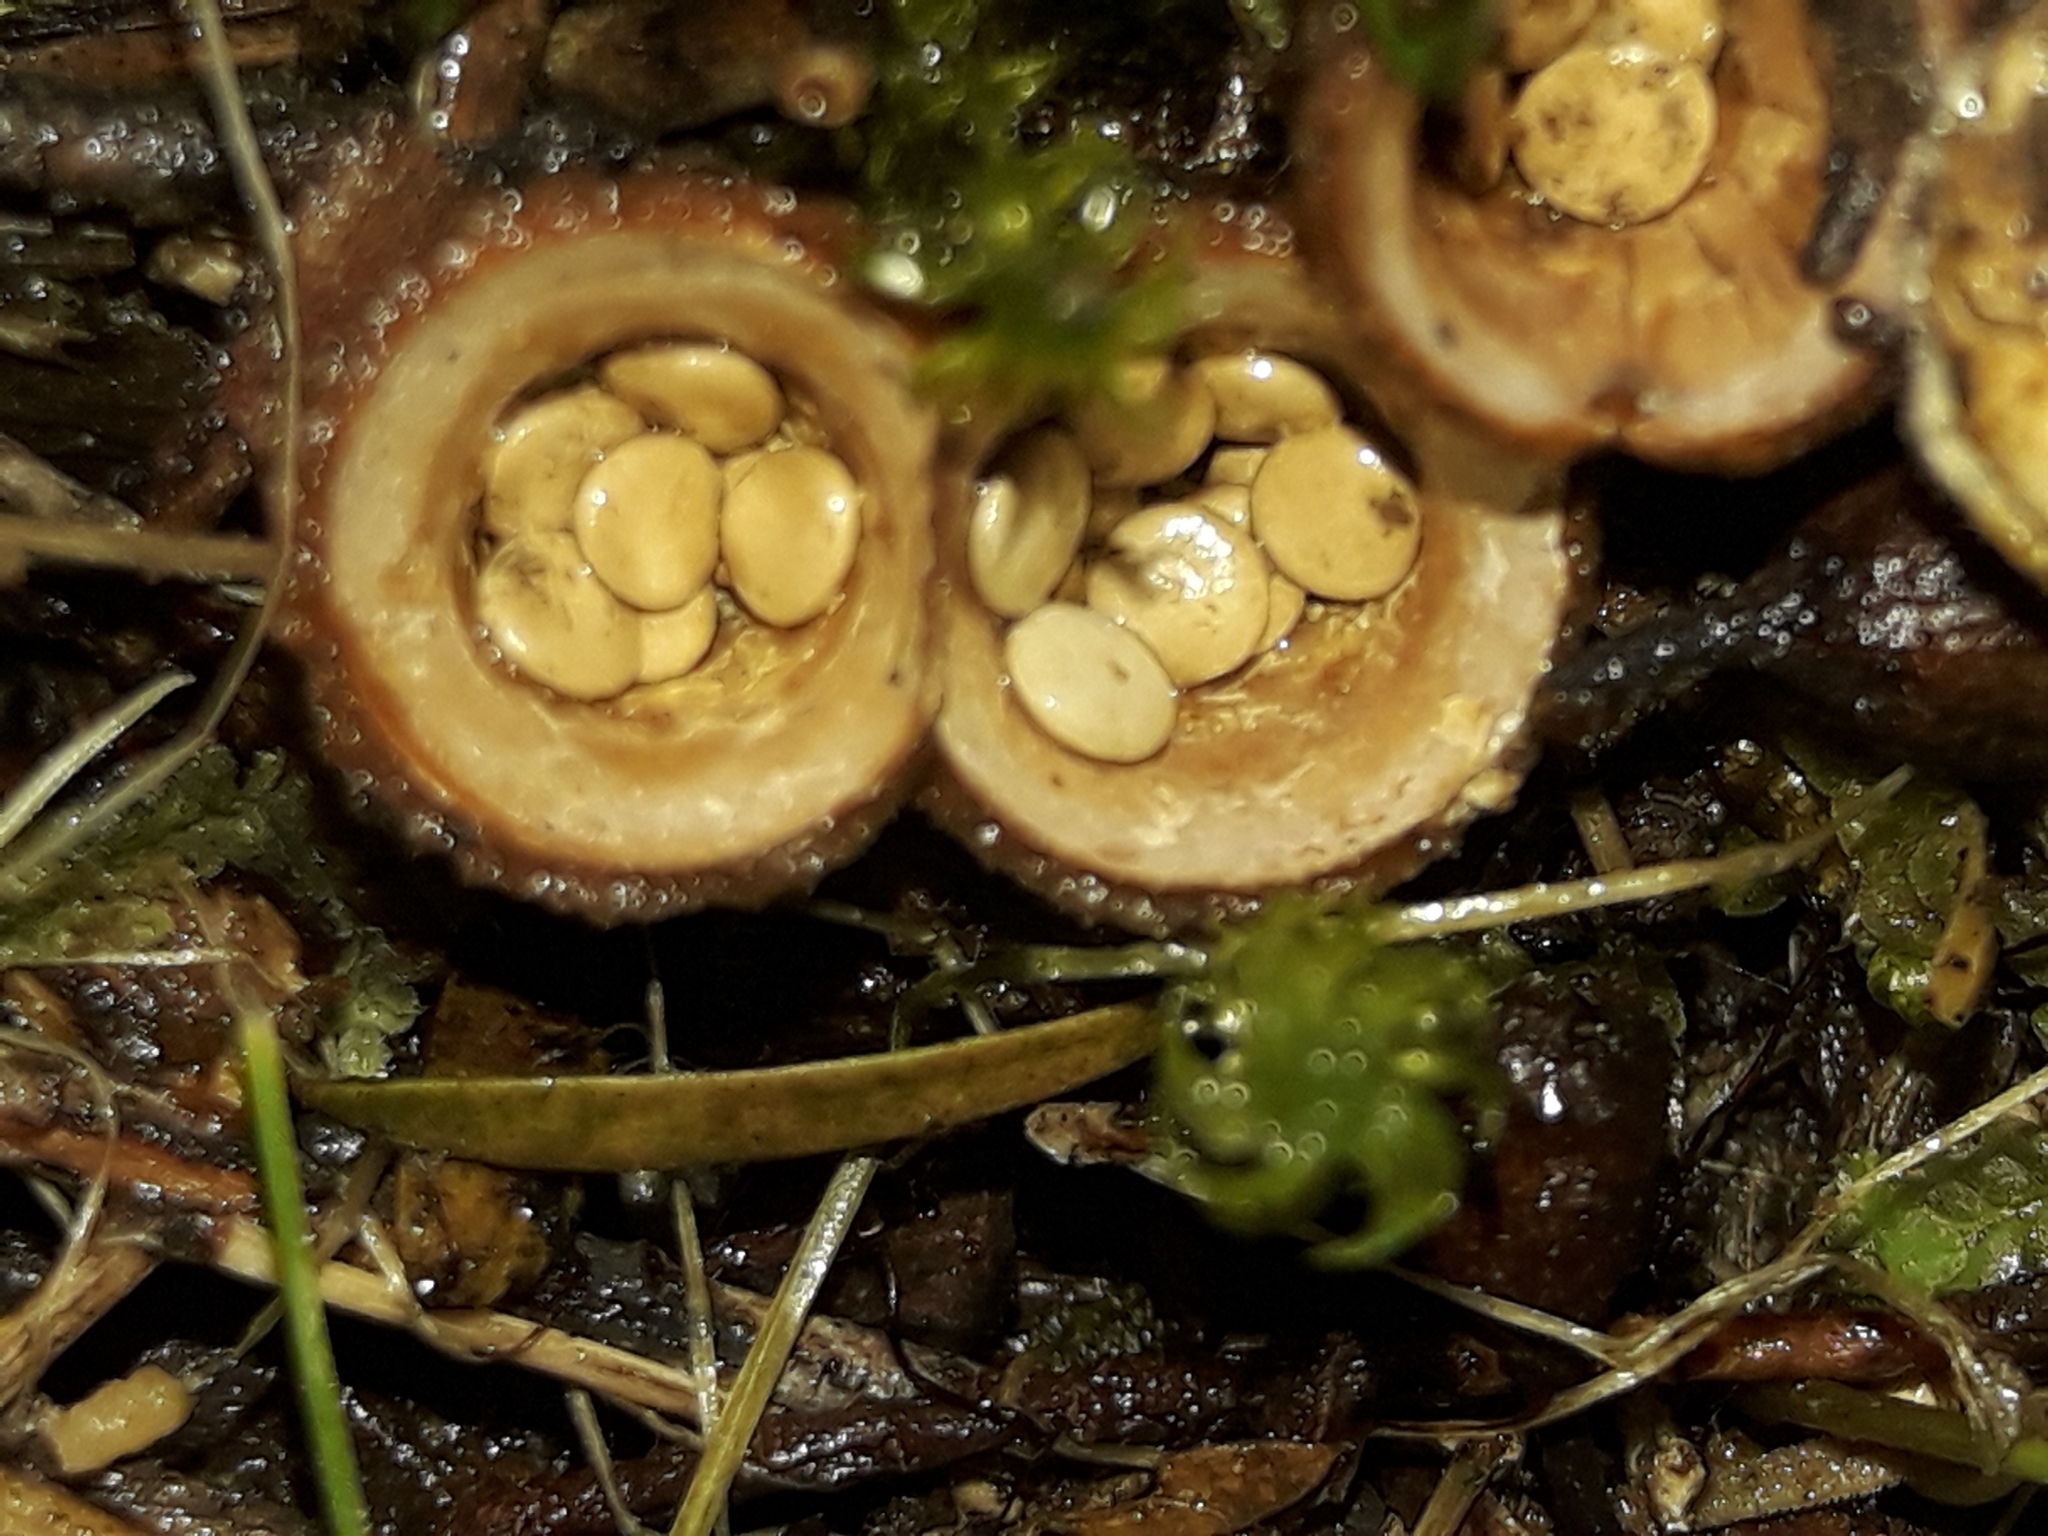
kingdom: Fungi
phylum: Basidiomycota
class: Agaricomycetes
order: Agaricales
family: Nidulariaceae
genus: Crucibulum
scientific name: Crucibulum simile
